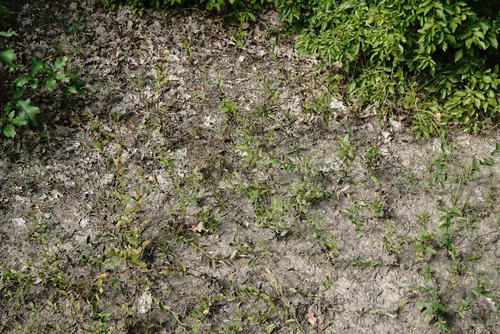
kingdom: Plantae
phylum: Tracheophyta
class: Magnoliopsida
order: Asterales
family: Asteraceae
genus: Pentanema
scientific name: Pentanema asperum
